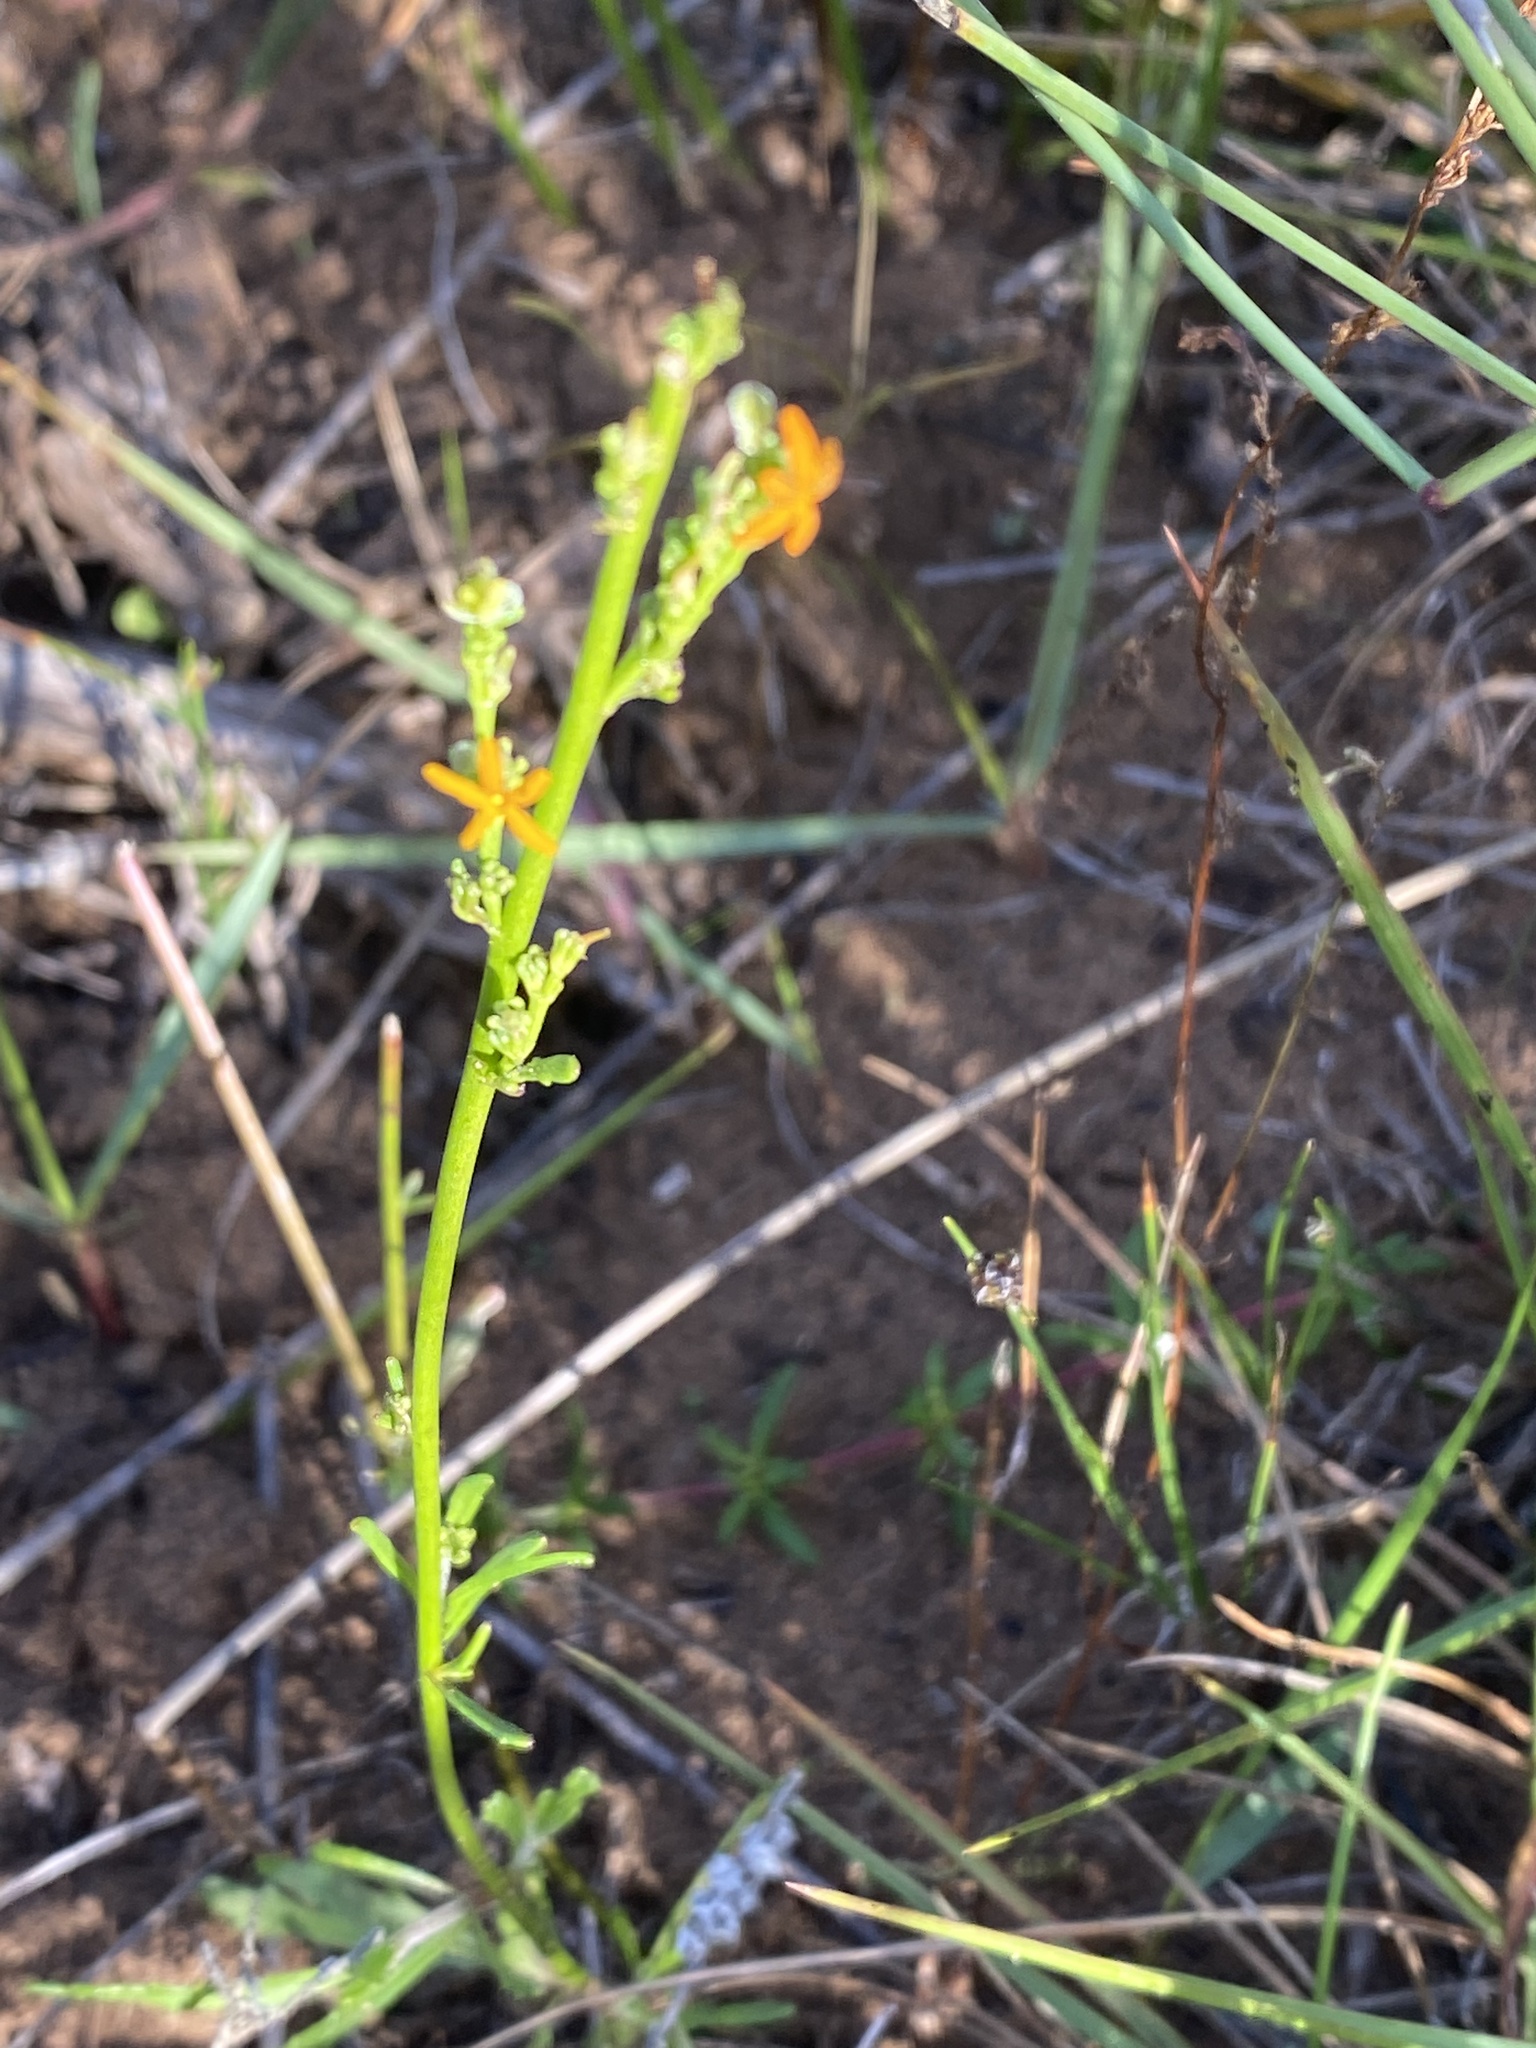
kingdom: Plantae
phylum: Tracheophyta
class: Magnoliopsida
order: Lamiales
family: Scrophulariaceae
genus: Manulea
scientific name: Manulea rubra
